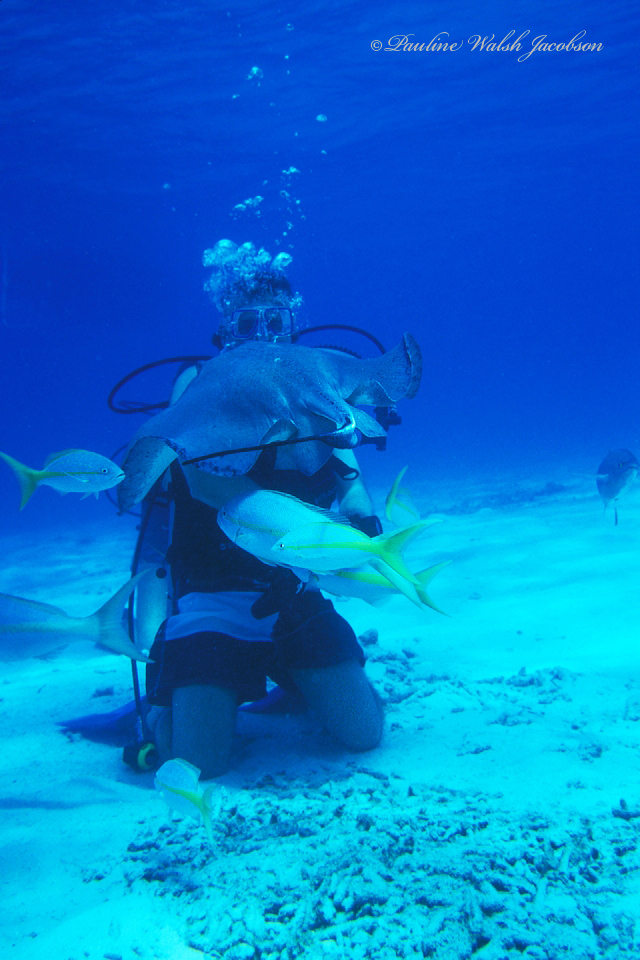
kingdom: Animalia
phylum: Chordata
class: Elasmobranchii
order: Myliobatiformes
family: Dasyatidae
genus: Hypanus
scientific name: Hypanus americanus
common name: Southern stingray
